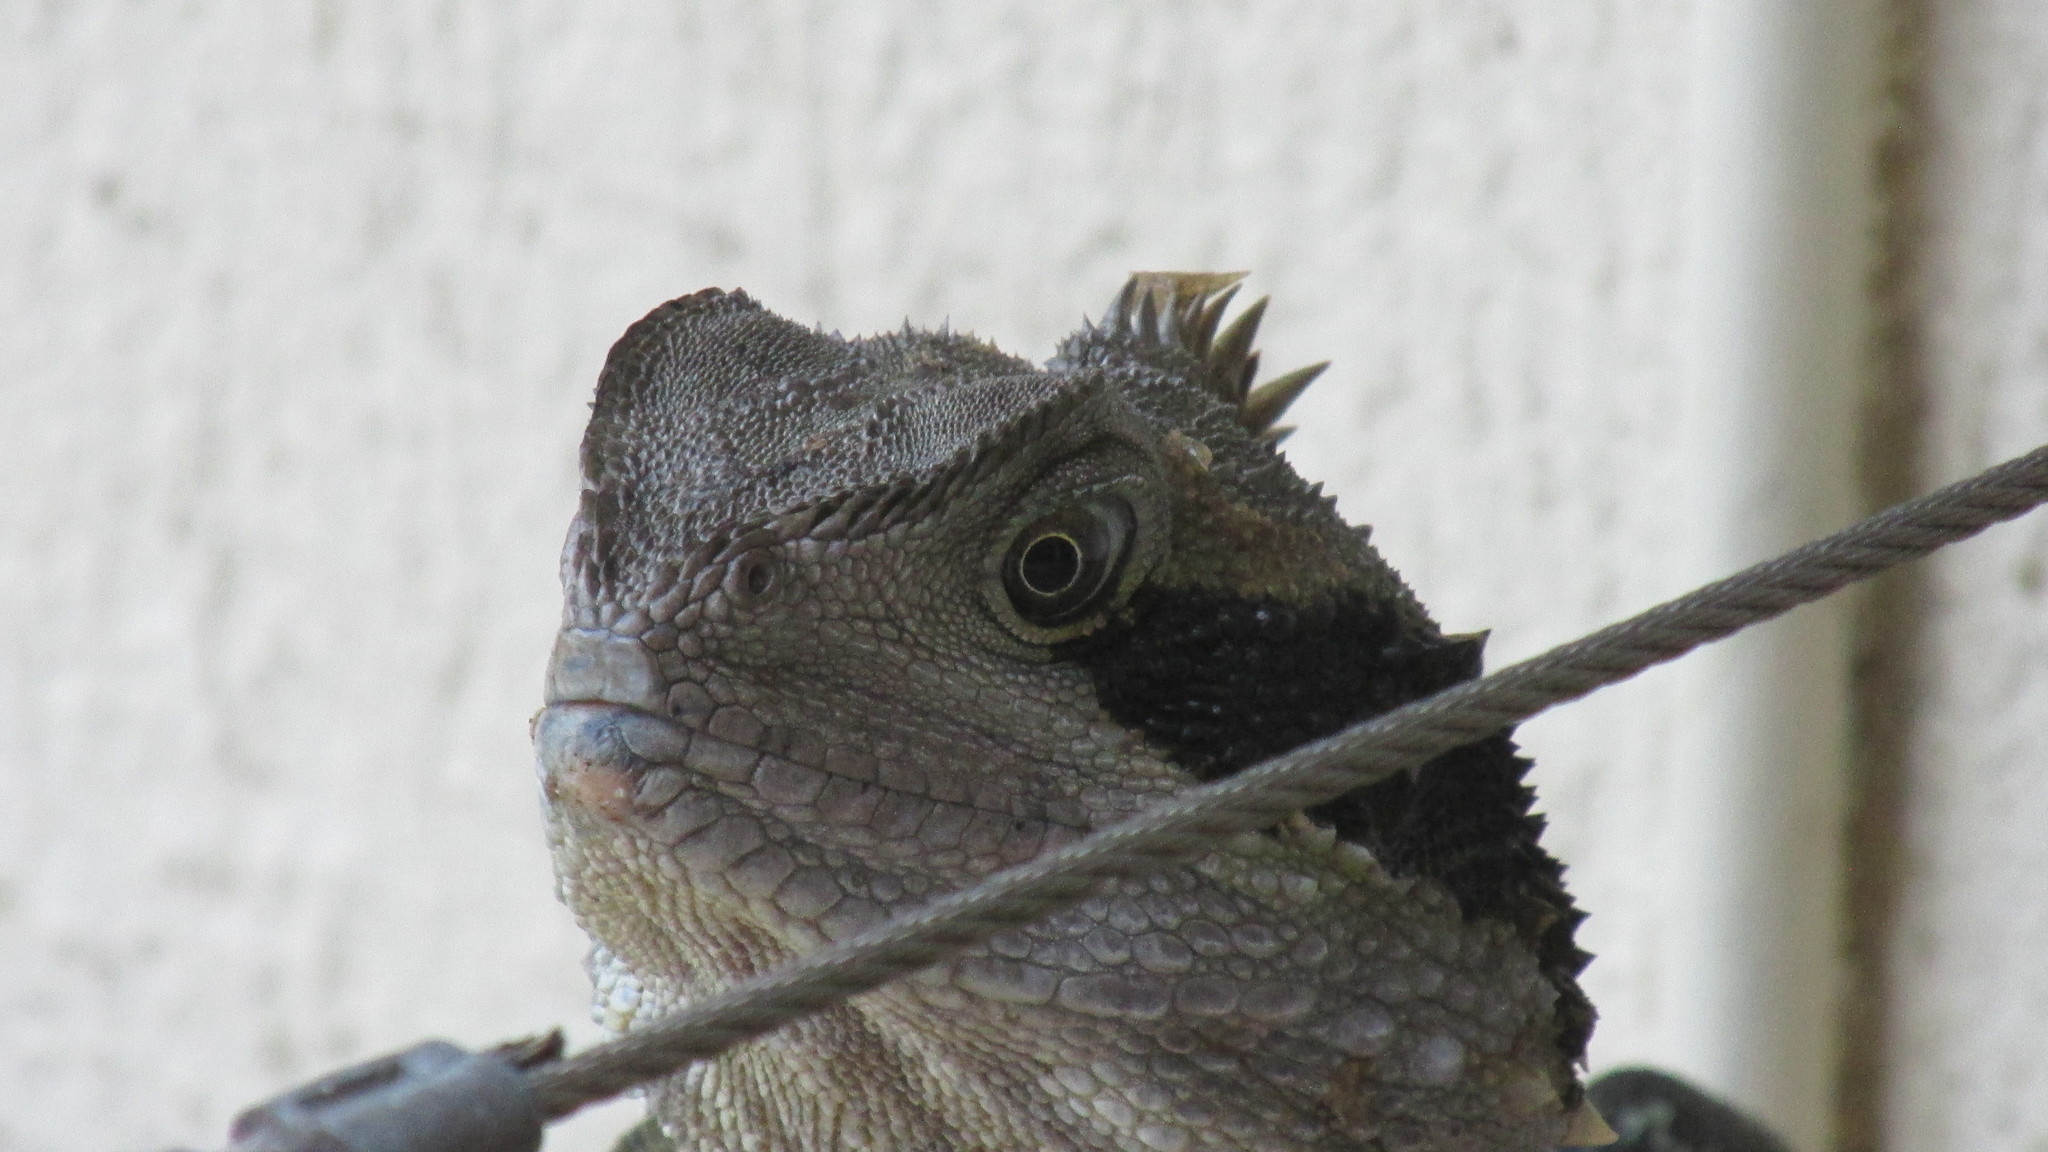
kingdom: Animalia
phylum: Chordata
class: Squamata
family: Agamidae
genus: Intellagama
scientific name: Intellagama lesueurii
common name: Eastern water dragon
